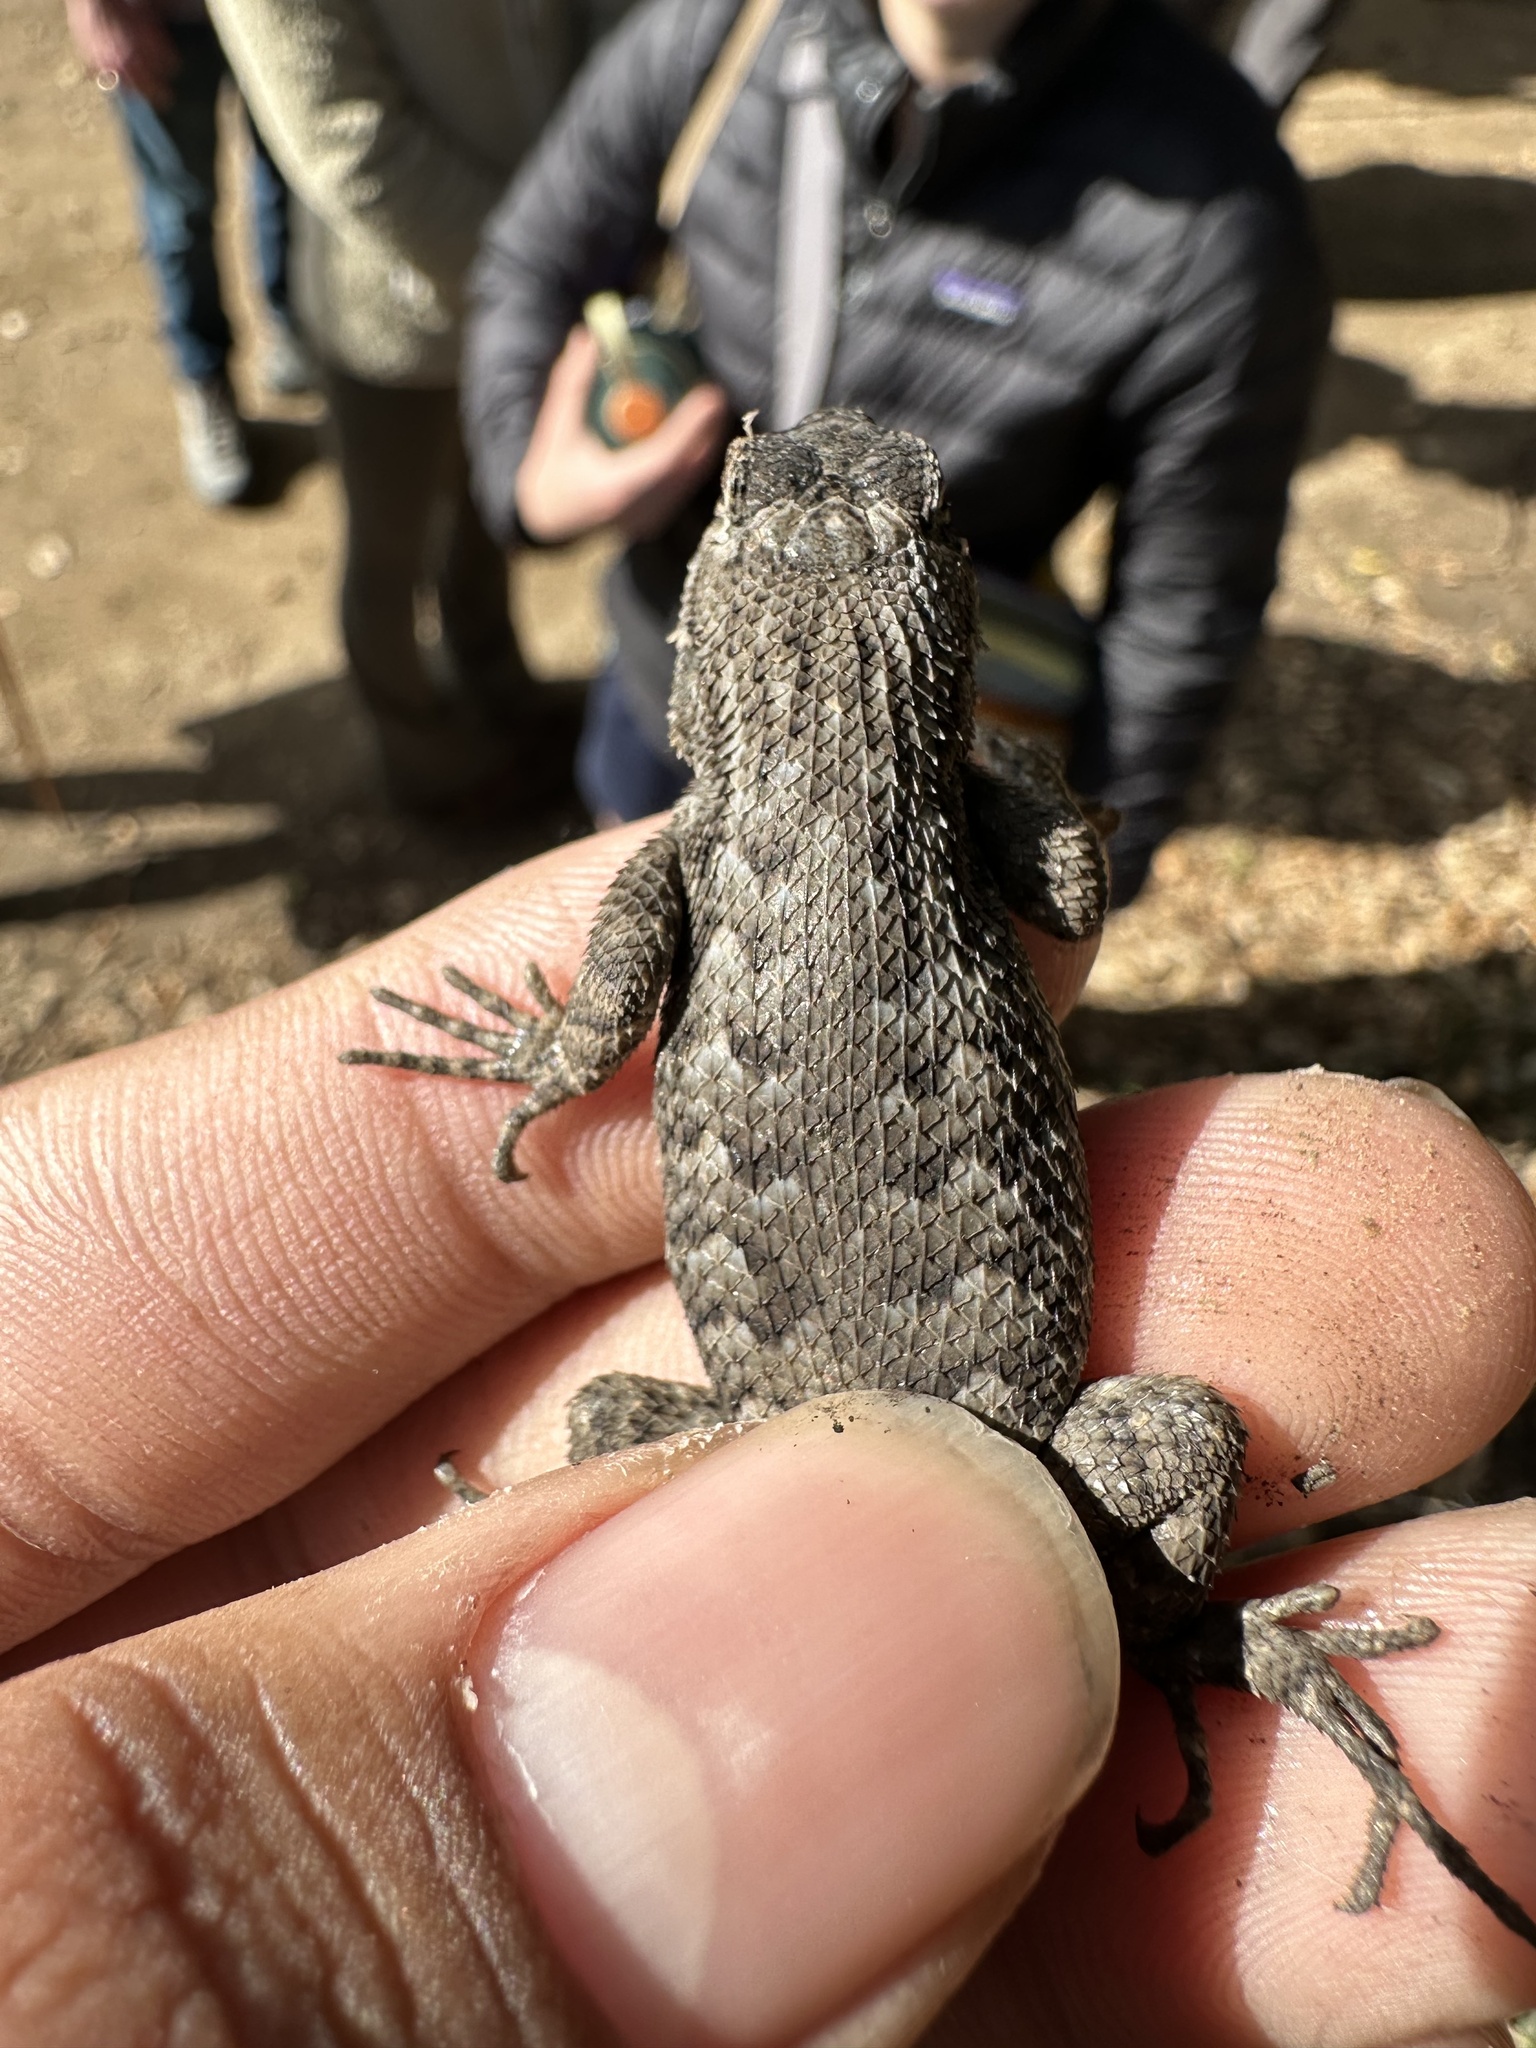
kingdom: Animalia
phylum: Chordata
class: Squamata
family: Phrynosomatidae
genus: Sceloporus
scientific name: Sceloporus occidentalis
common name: Western fence lizard
